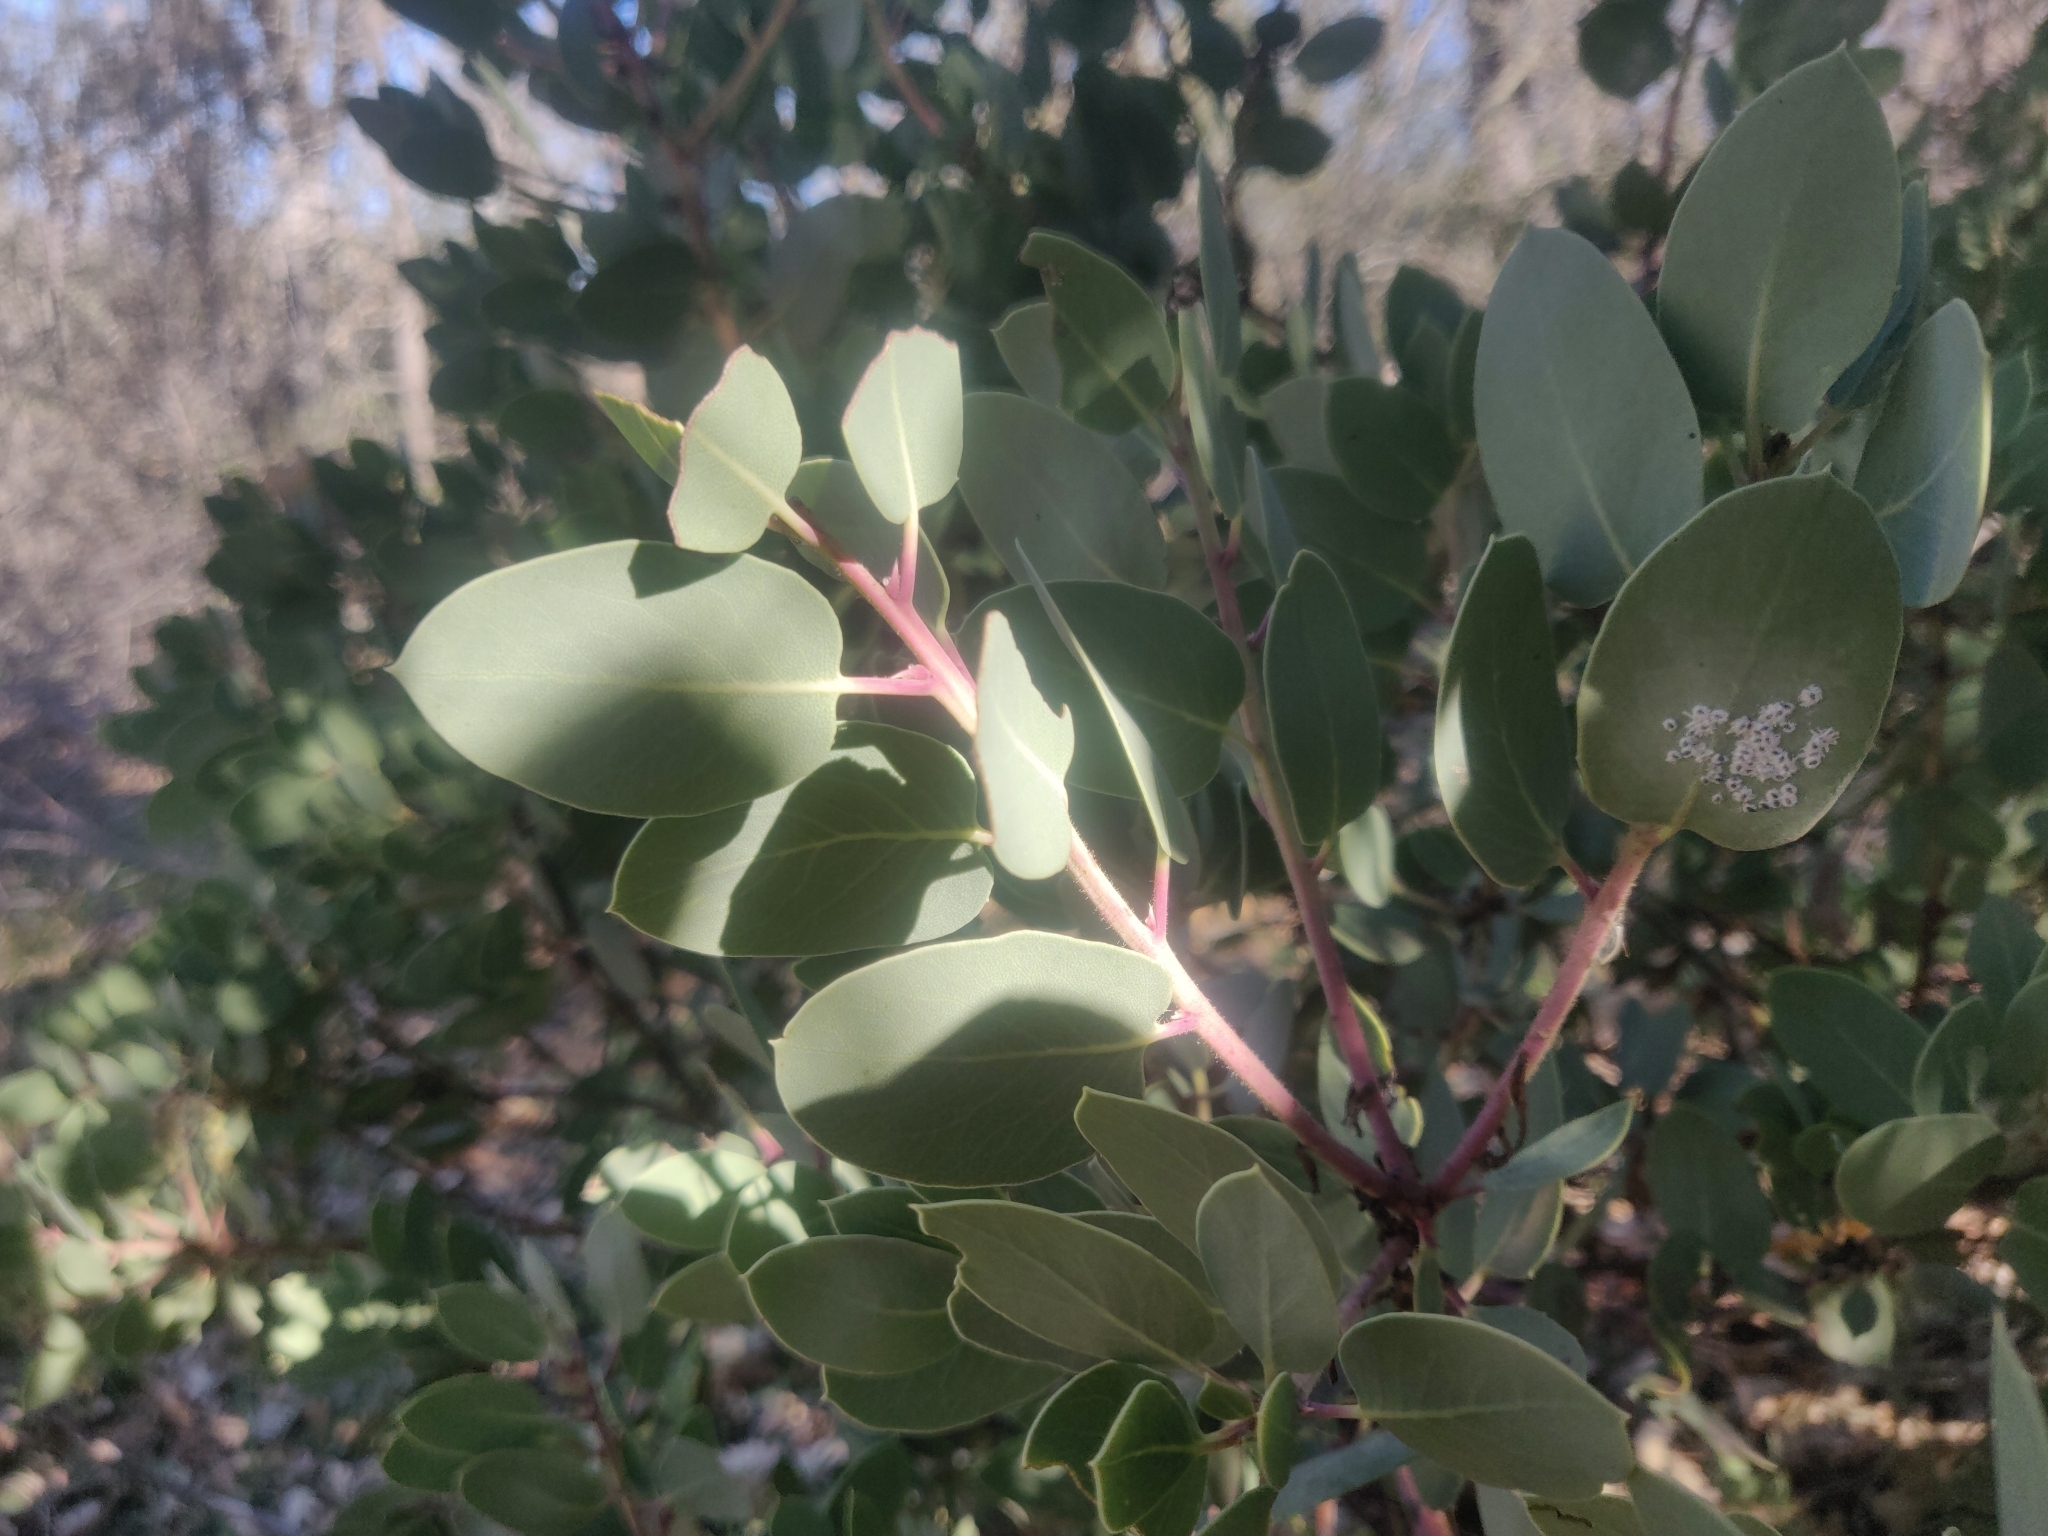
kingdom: Plantae
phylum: Tracheophyta
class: Magnoliopsida
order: Ericales
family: Ericaceae
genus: Arctostaphylos
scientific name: Arctostaphylos glauca
